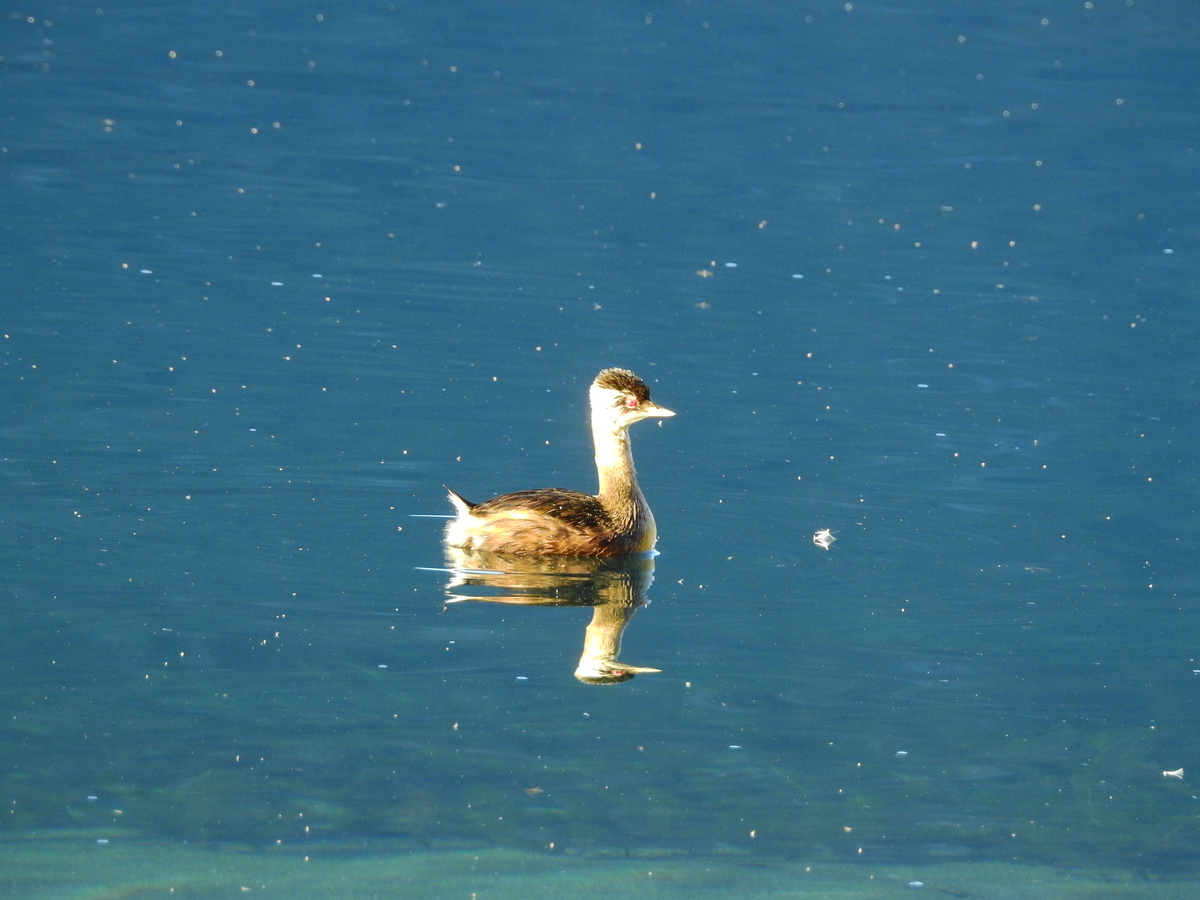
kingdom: Animalia
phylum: Chordata
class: Aves
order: Podicipediformes
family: Podicipedidae
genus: Rollandia
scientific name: Rollandia rolland
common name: White-tufted grebe
